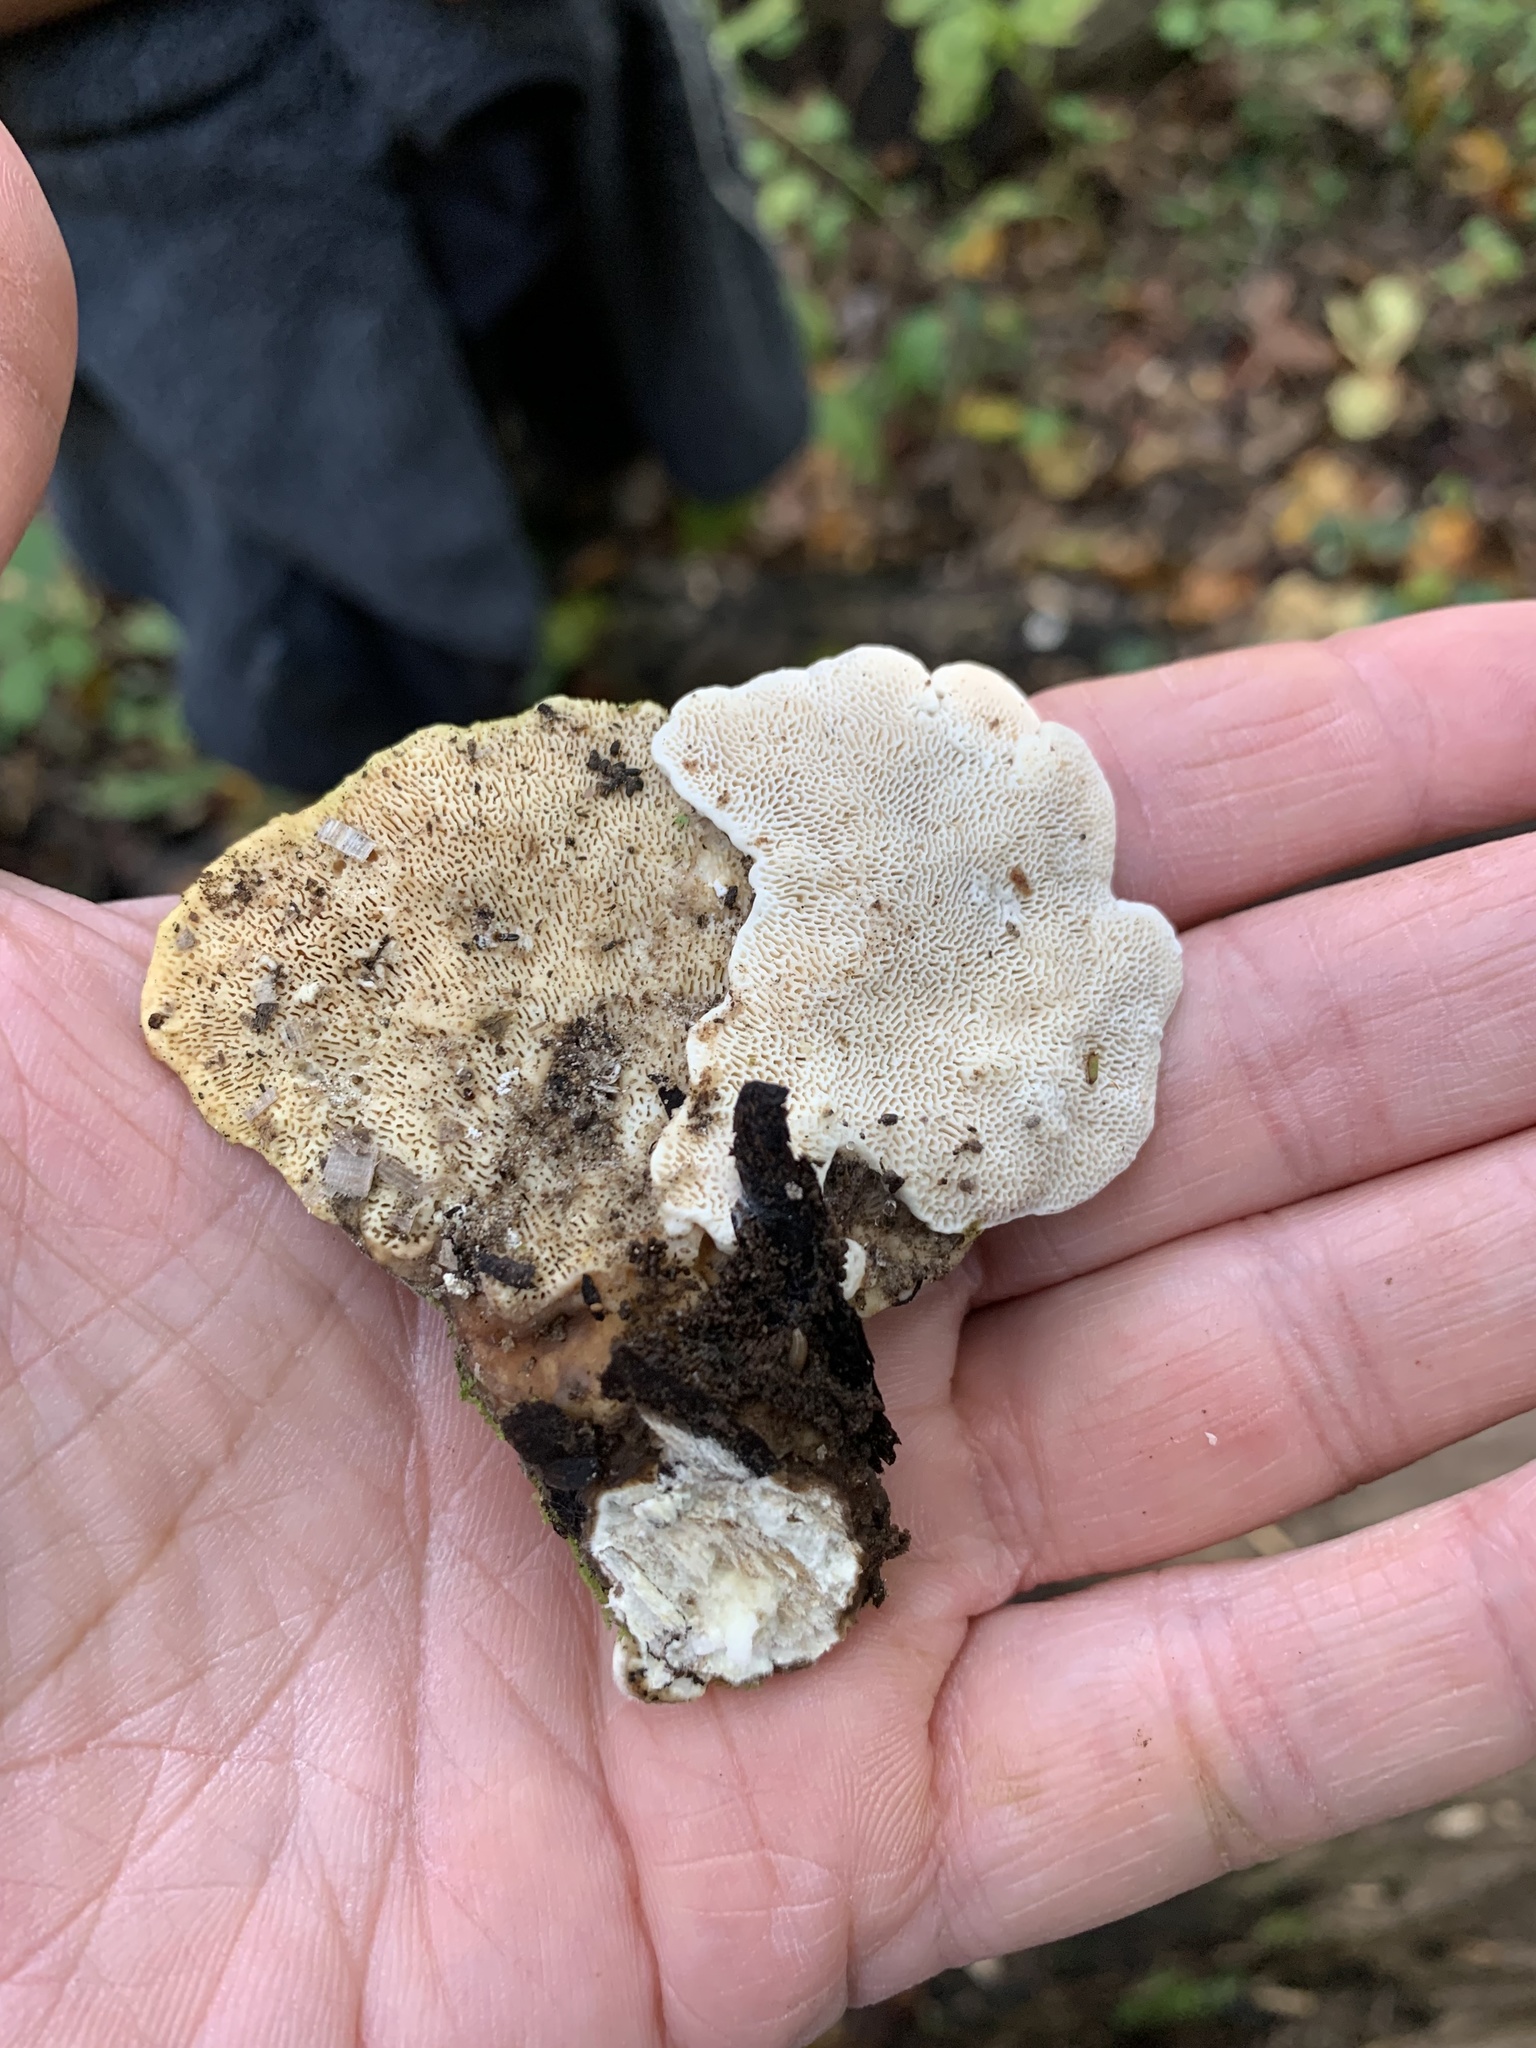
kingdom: Fungi
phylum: Basidiomycota
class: Agaricomycetes
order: Polyporales
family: Polyporaceae
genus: Trametes
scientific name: Trametes gibbosa
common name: Lumpy bracket
